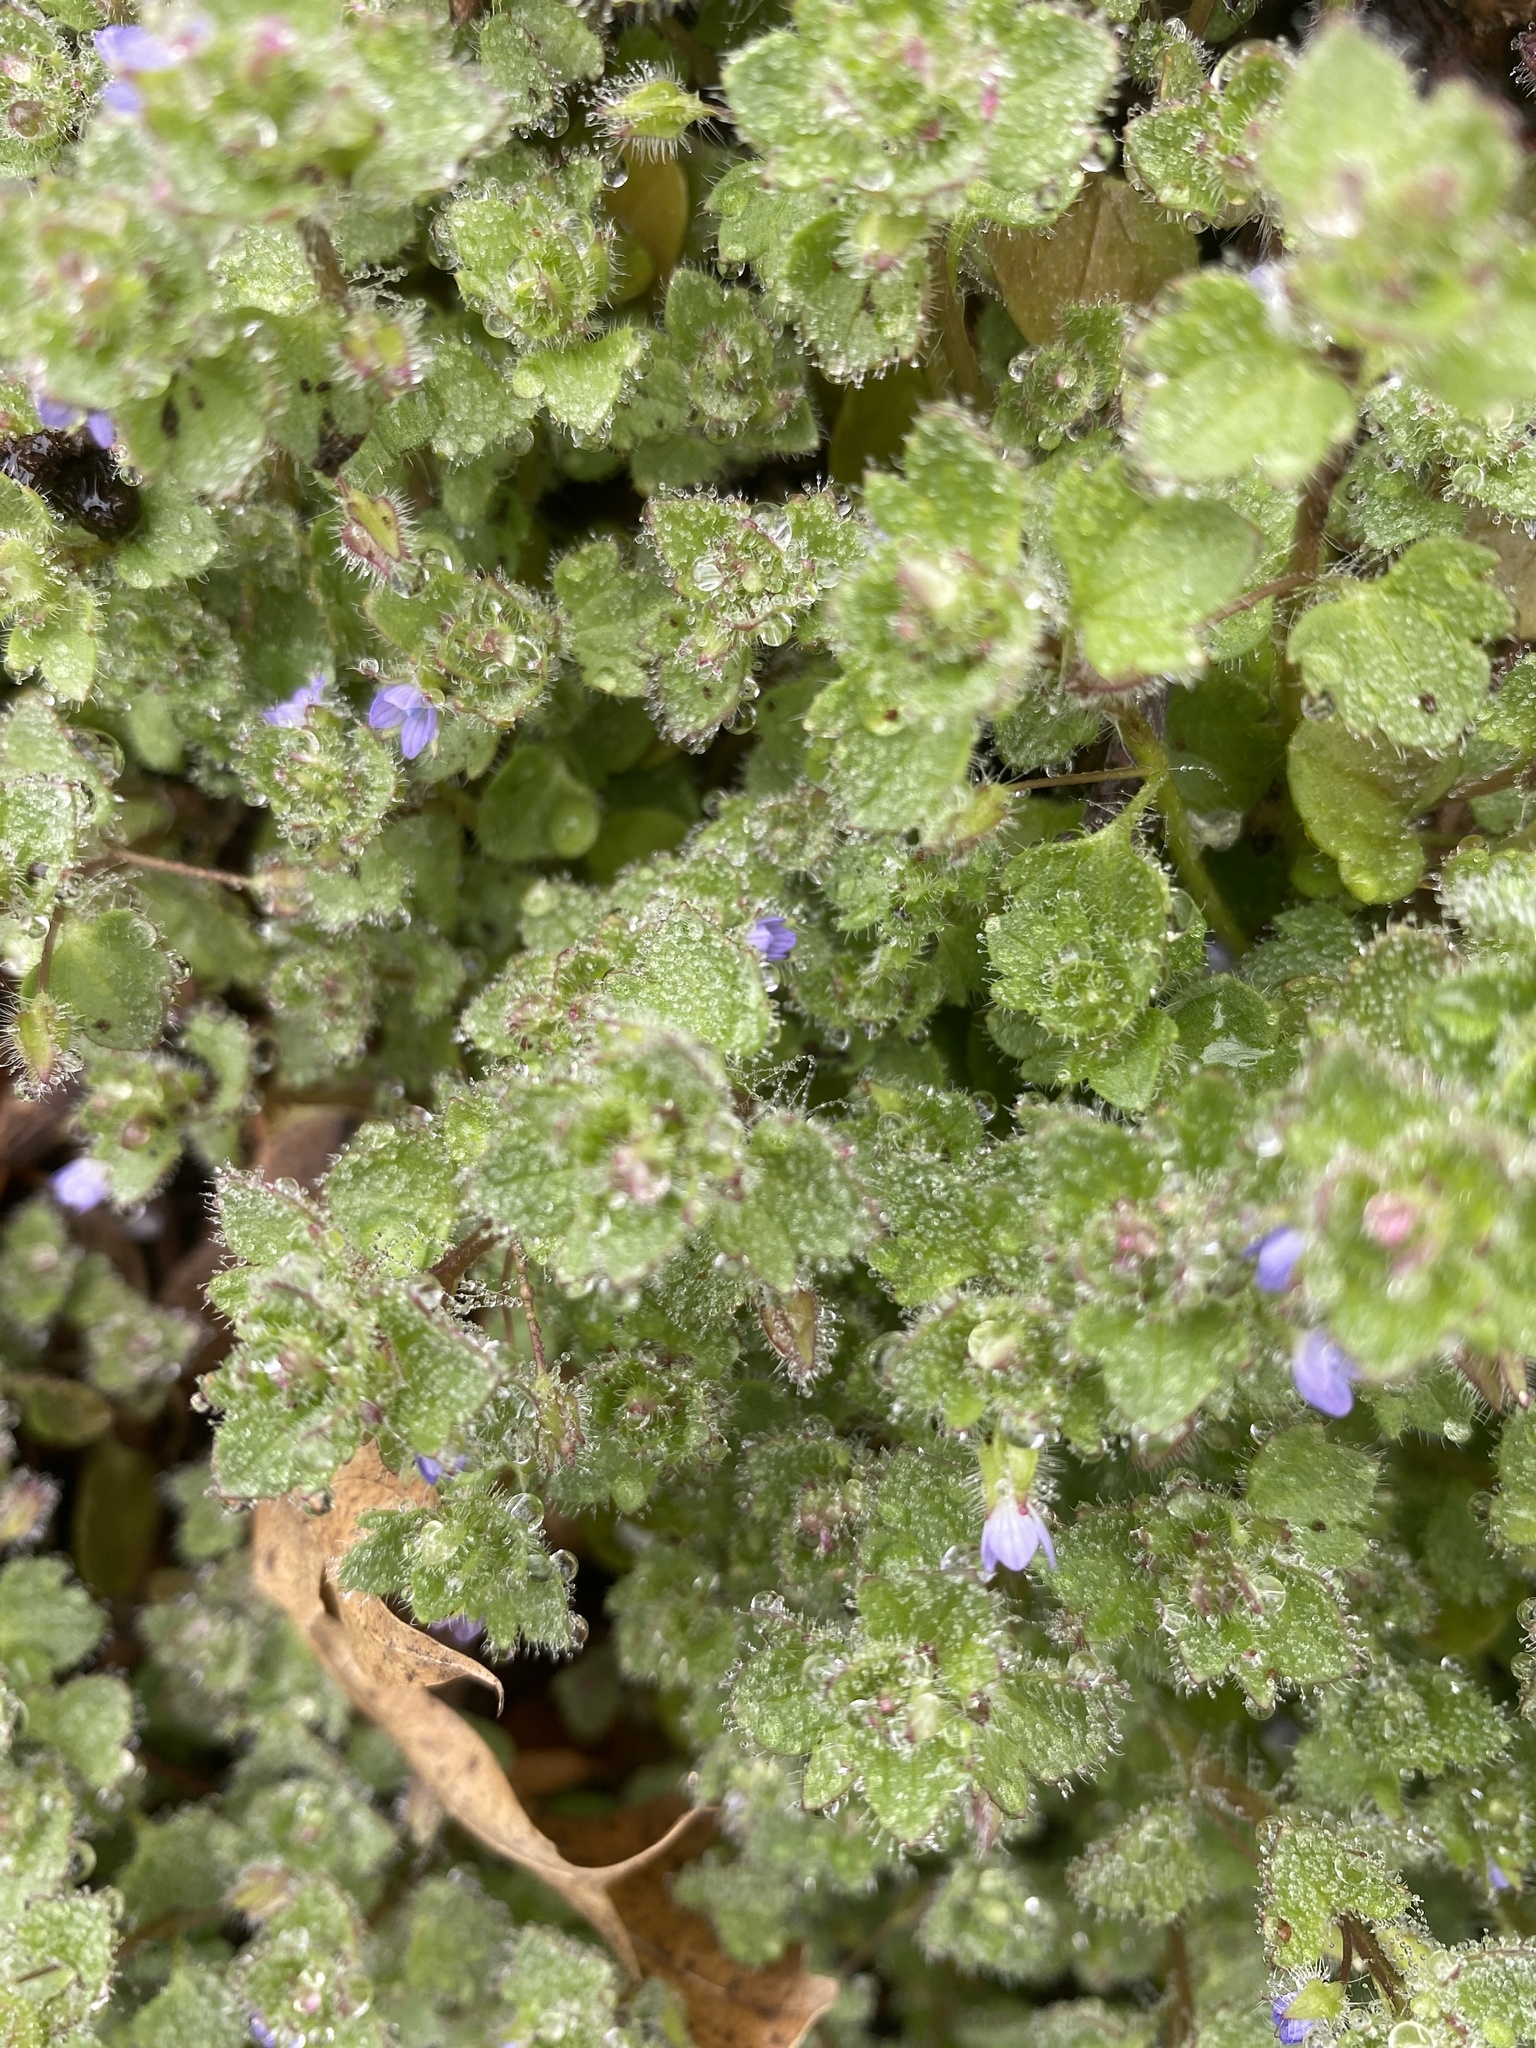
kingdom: Plantae
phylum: Tracheophyta
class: Magnoliopsida
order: Lamiales
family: Plantaginaceae
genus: Veronica
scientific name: Veronica hederifolia
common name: Ivy-leaved speedwell
